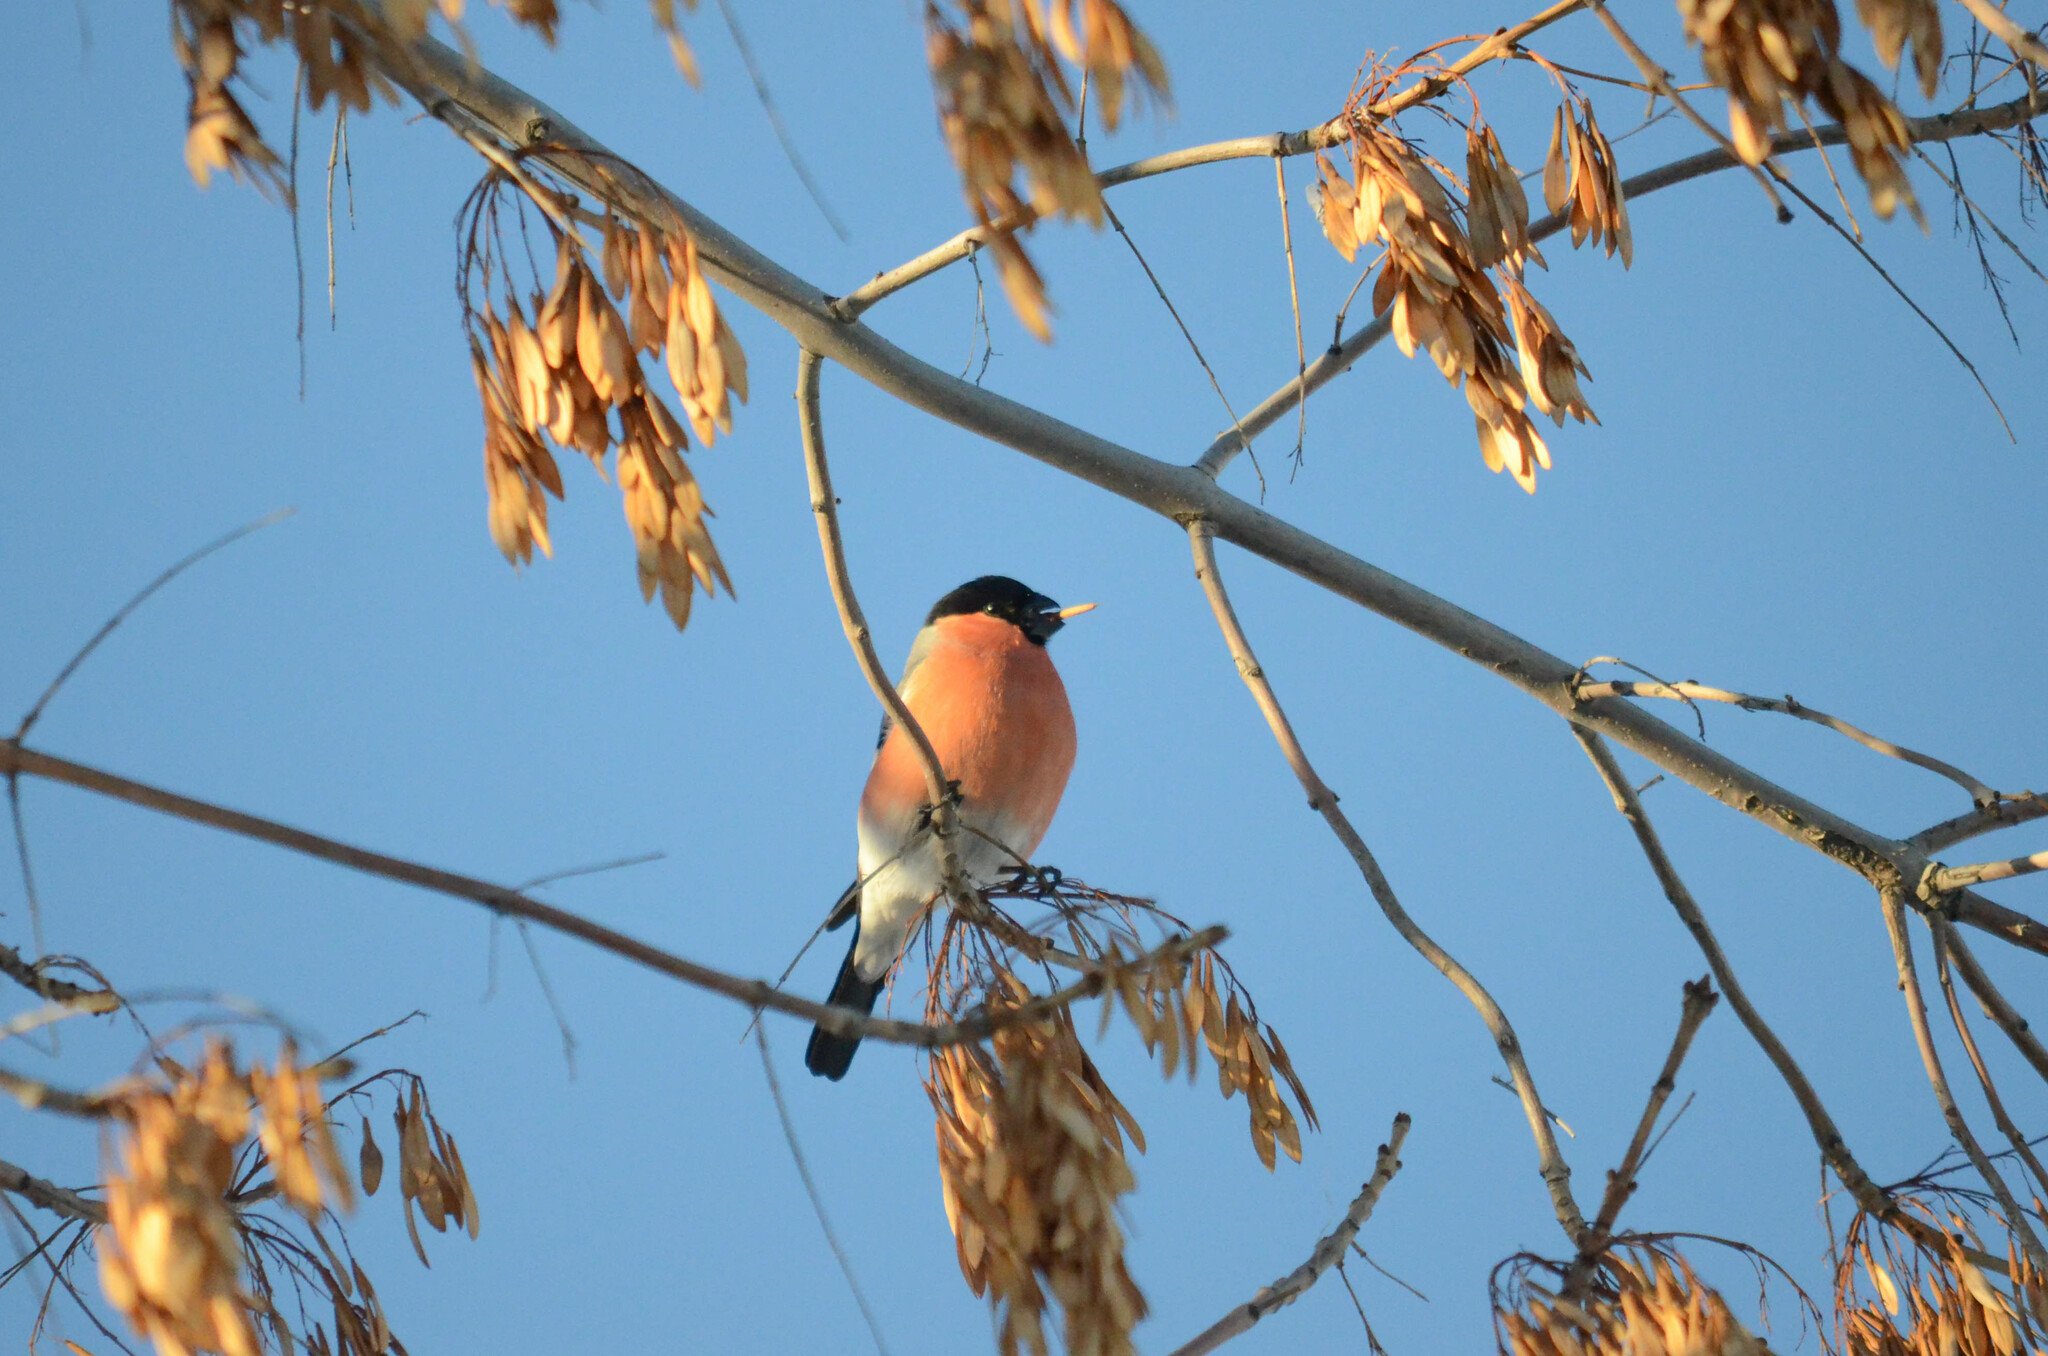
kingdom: Animalia
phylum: Chordata
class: Aves
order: Passeriformes
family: Fringillidae
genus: Pyrrhula
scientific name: Pyrrhula pyrrhula
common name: Eurasian bullfinch
